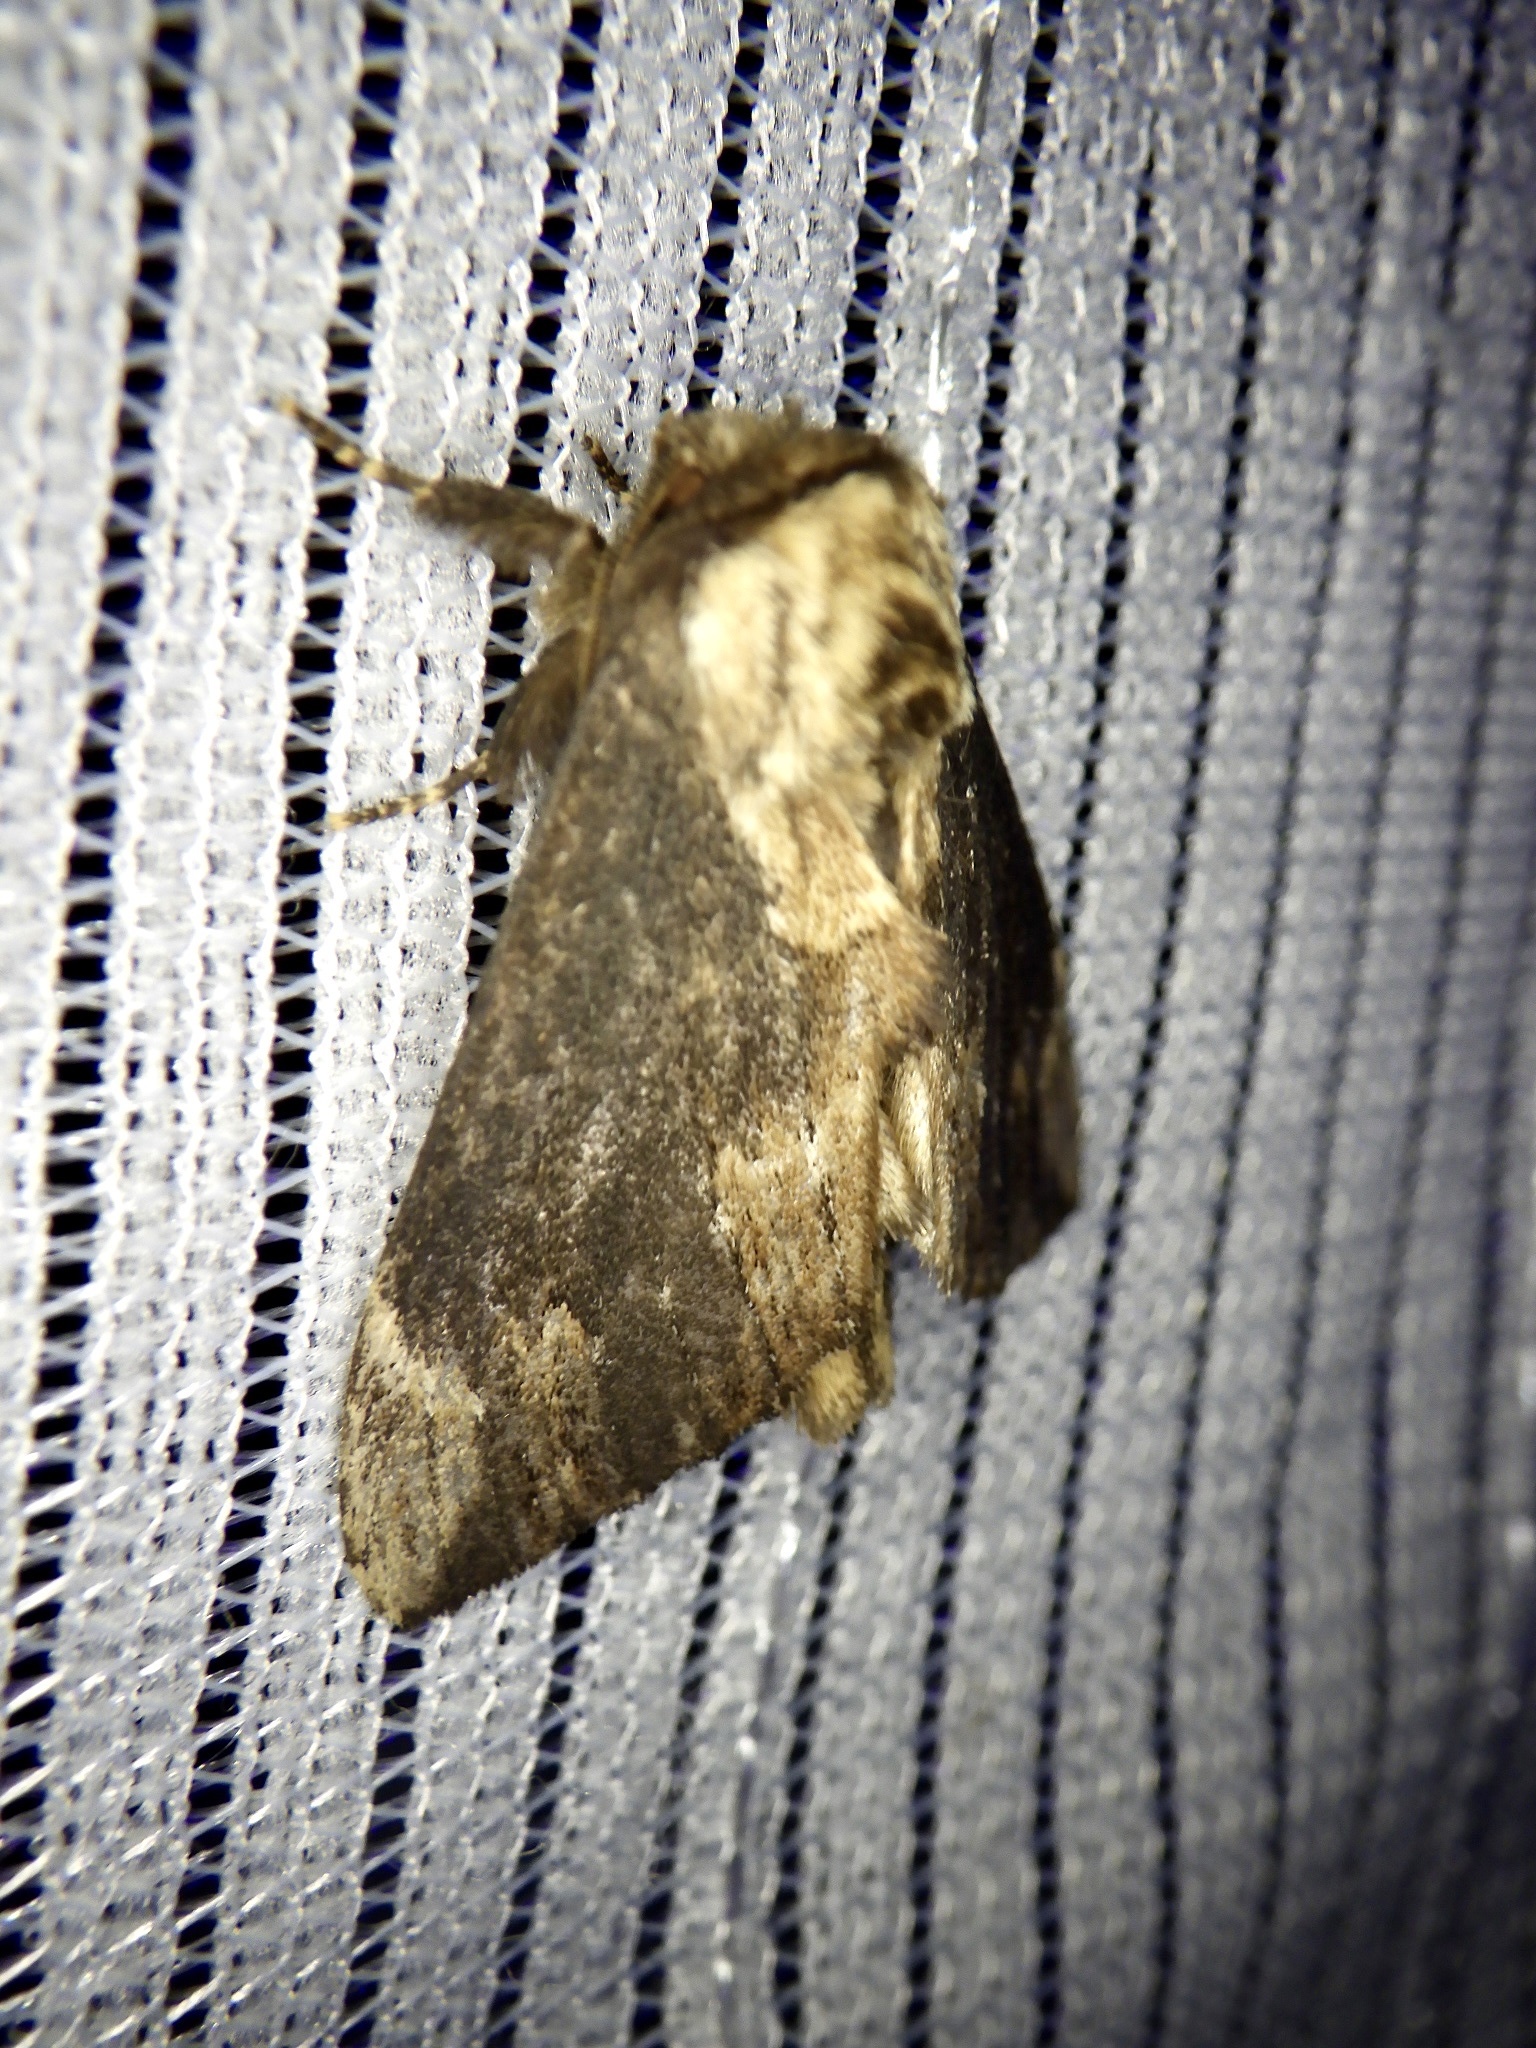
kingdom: Animalia
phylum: Arthropoda
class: Insecta
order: Lepidoptera
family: Notodontidae
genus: Hiradonta
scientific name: Hiradonta takaonis
